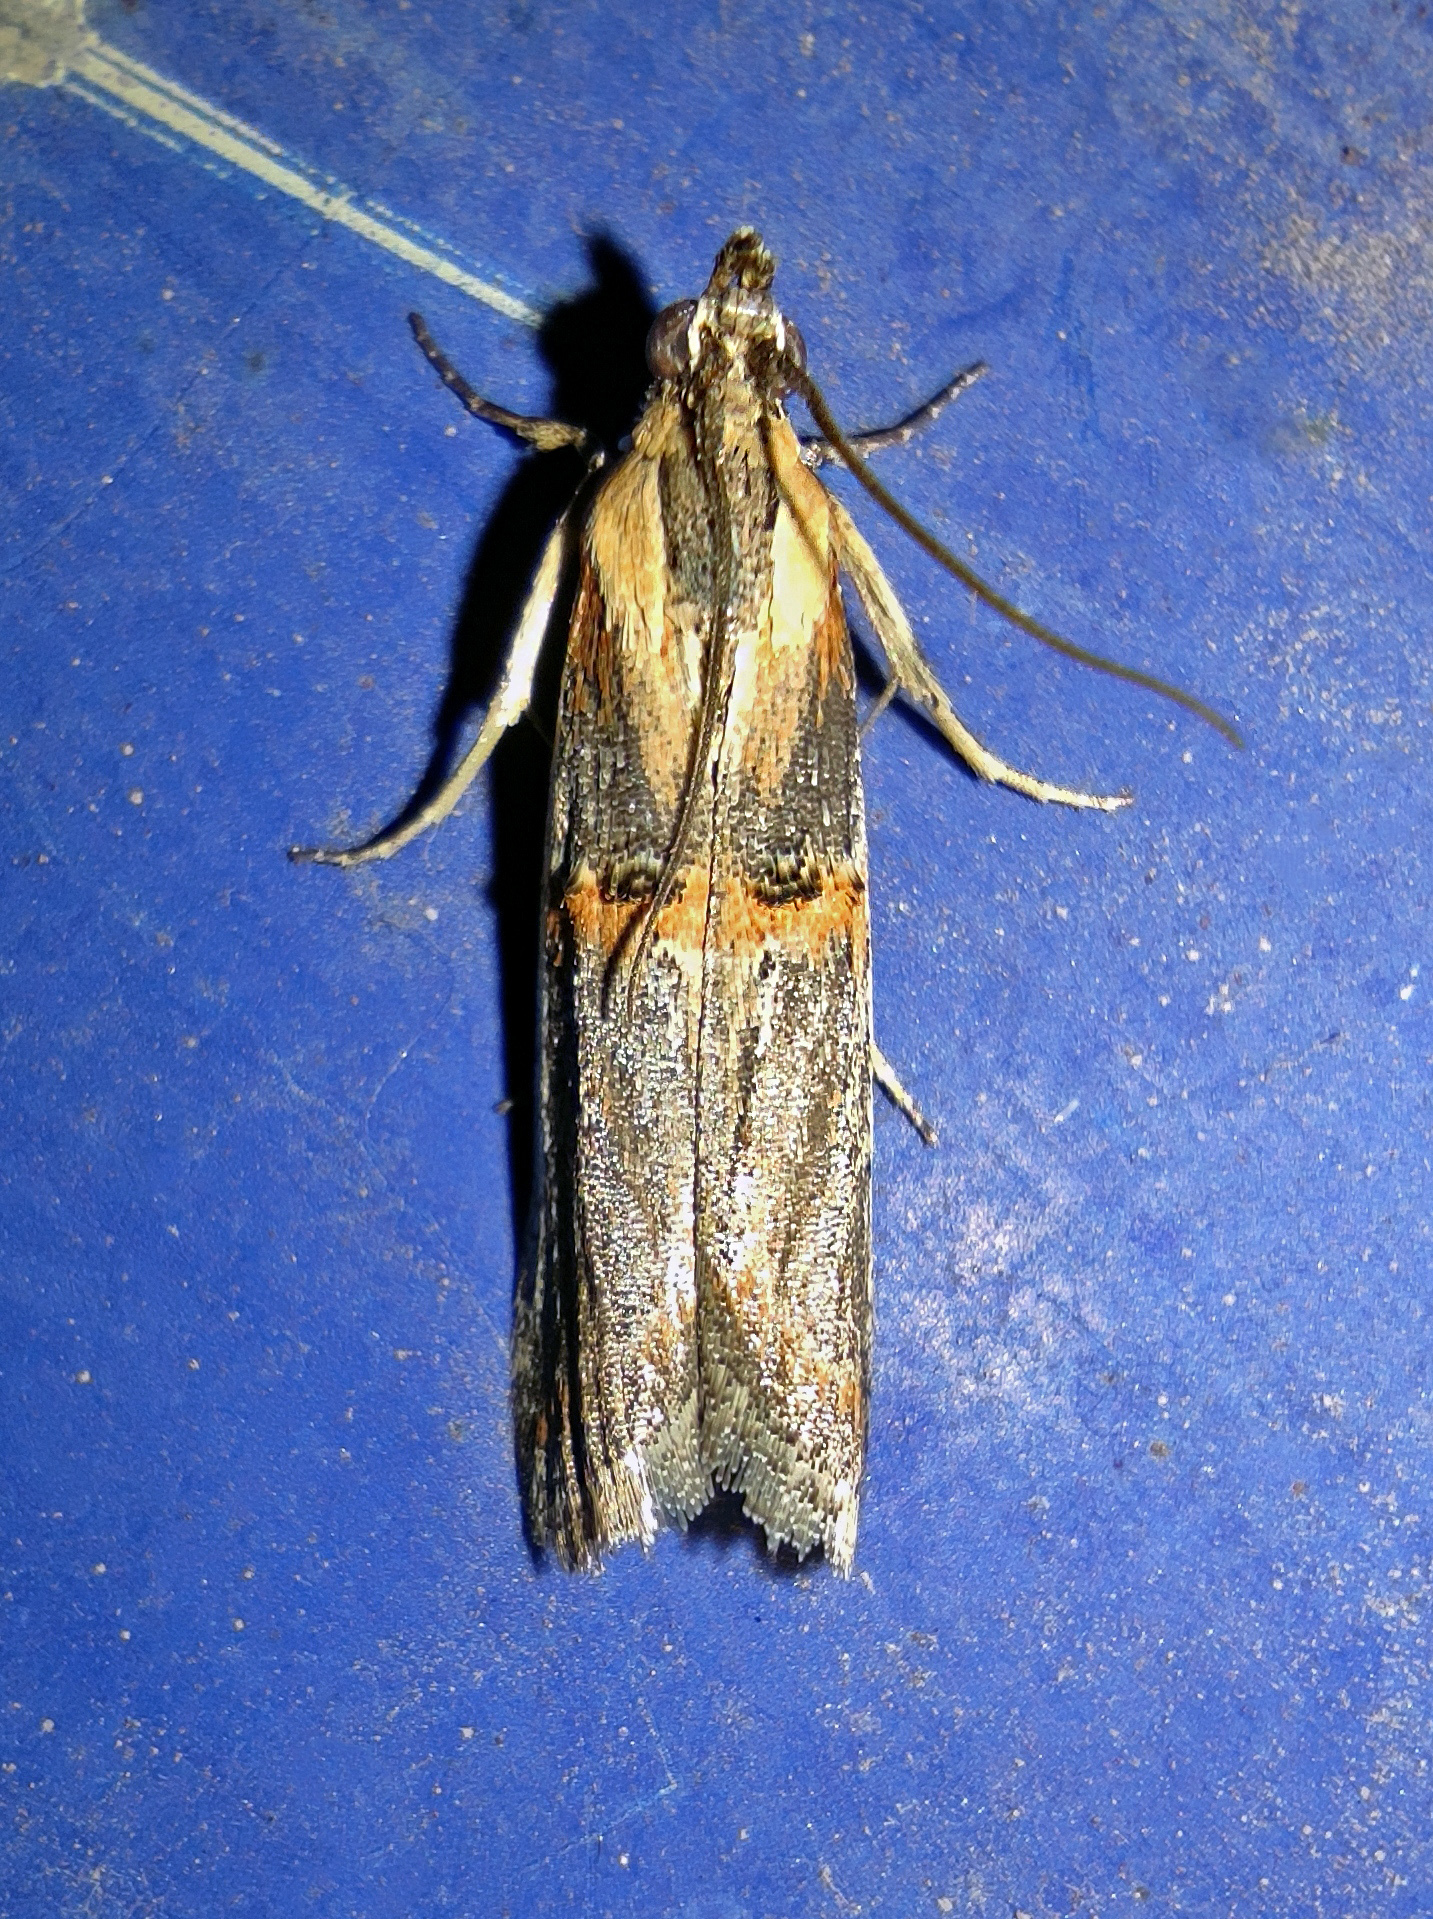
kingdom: Animalia
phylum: Arthropoda
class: Insecta
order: Lepidoptera
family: Pyralidae
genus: Psorosa
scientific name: Psorosa strictella
